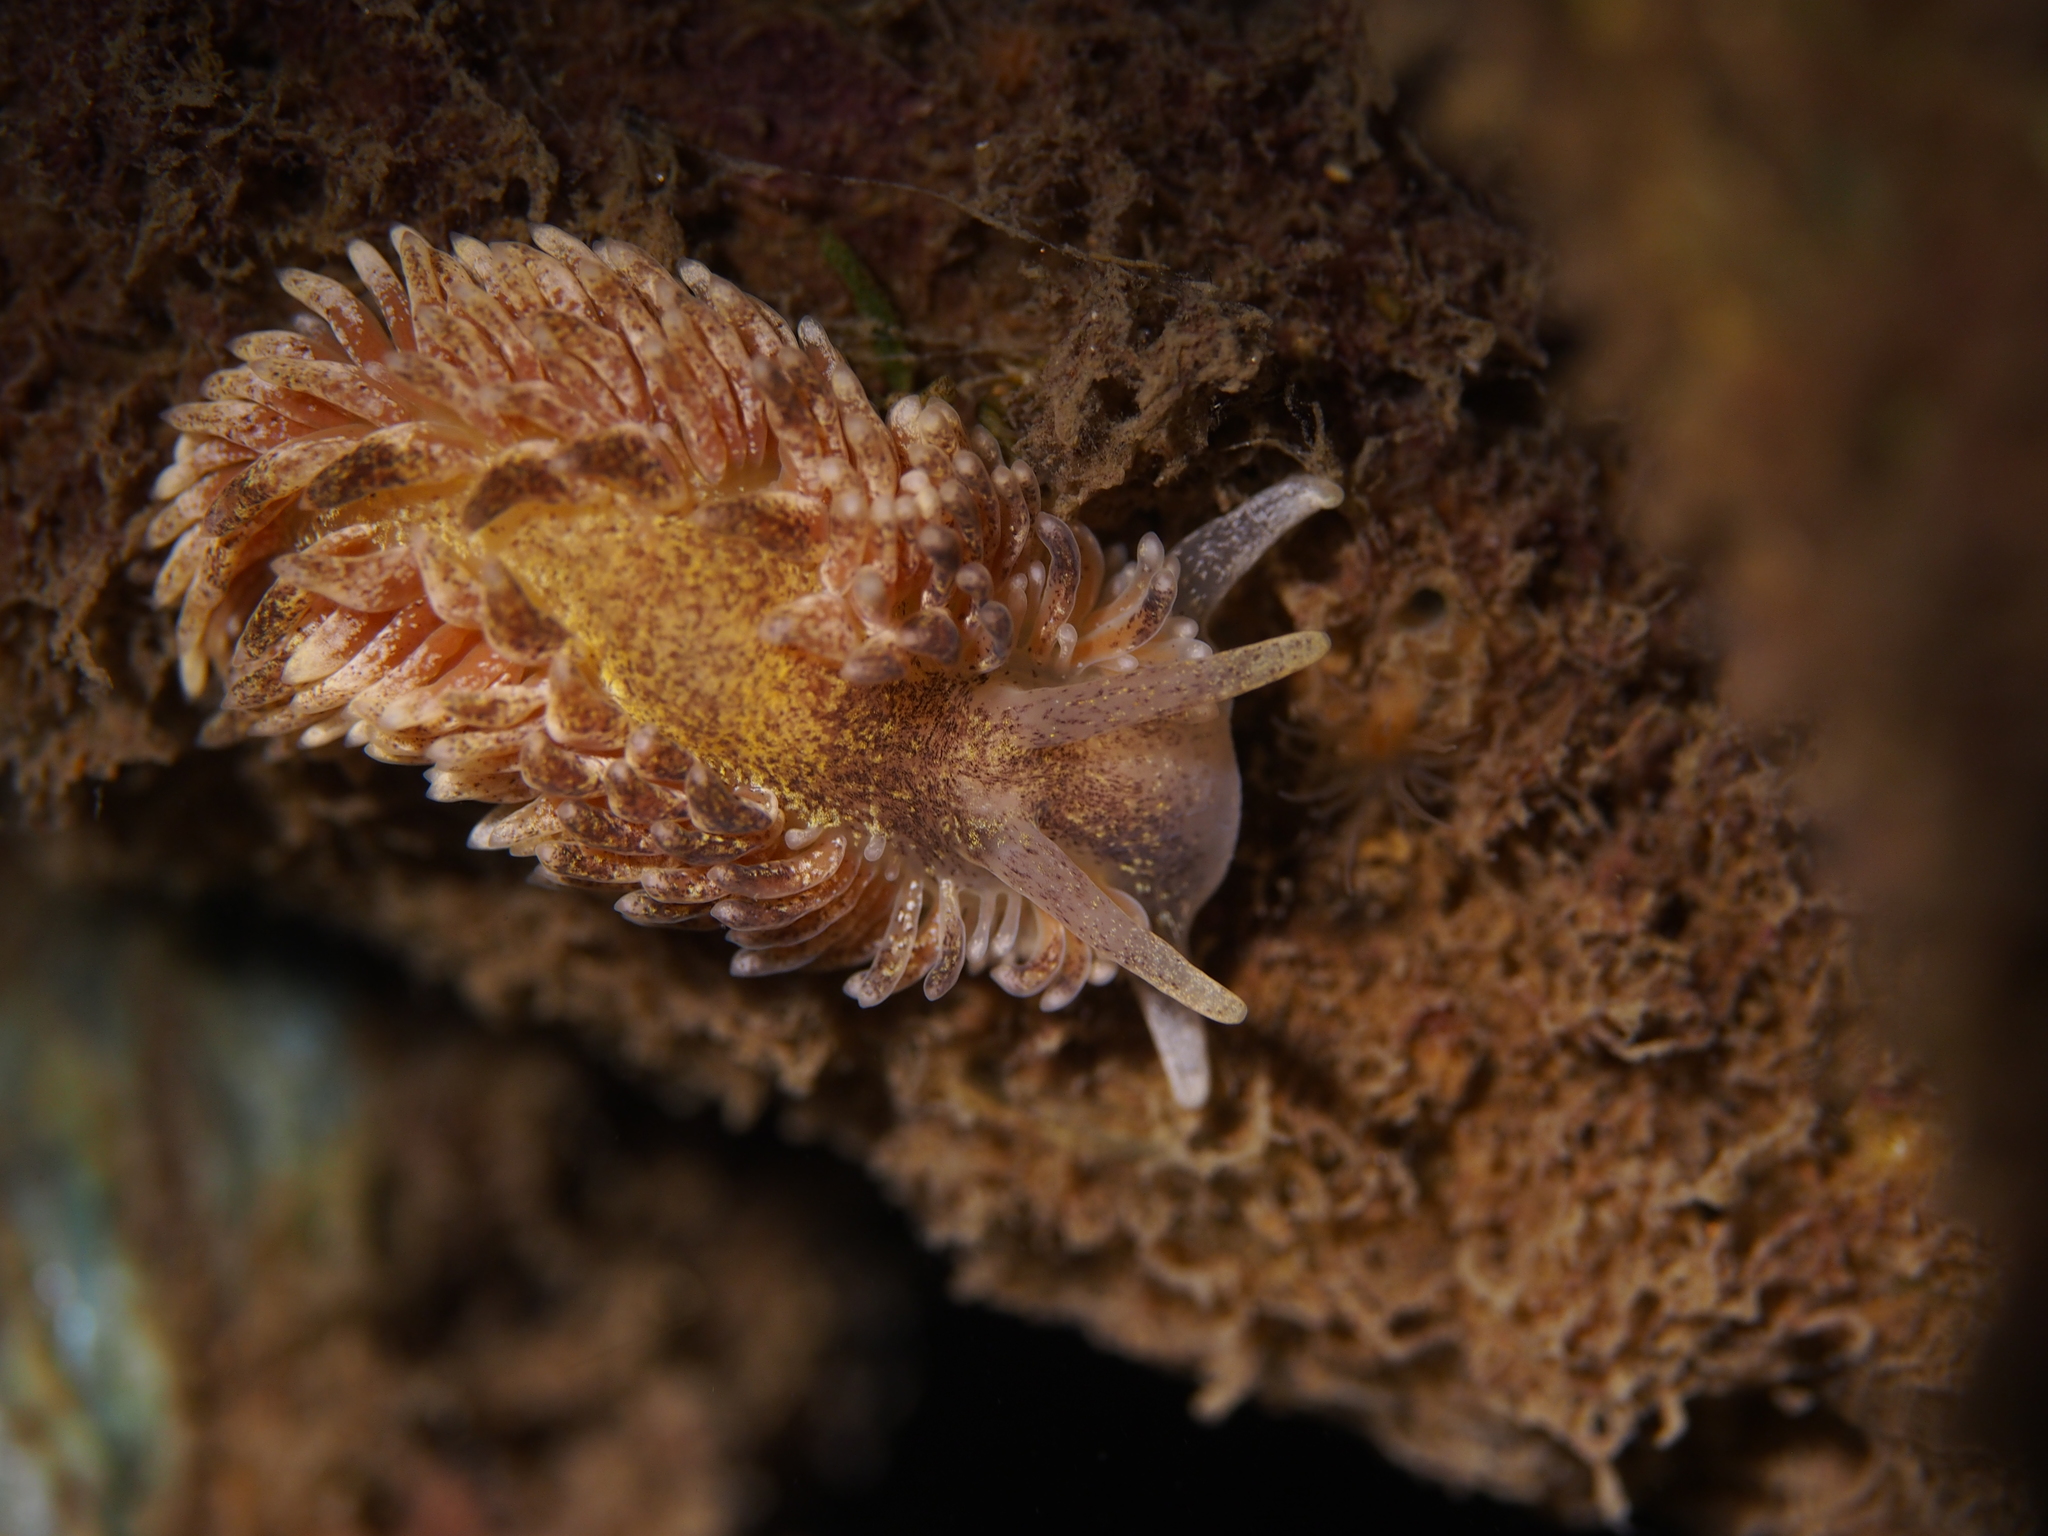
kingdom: Animalia
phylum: Mollusca
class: Gastropoda
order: Nudibranchia
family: Aeolidiidae
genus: Aeolidia
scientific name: Aeolidia papillosa
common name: Common grey sea slug
